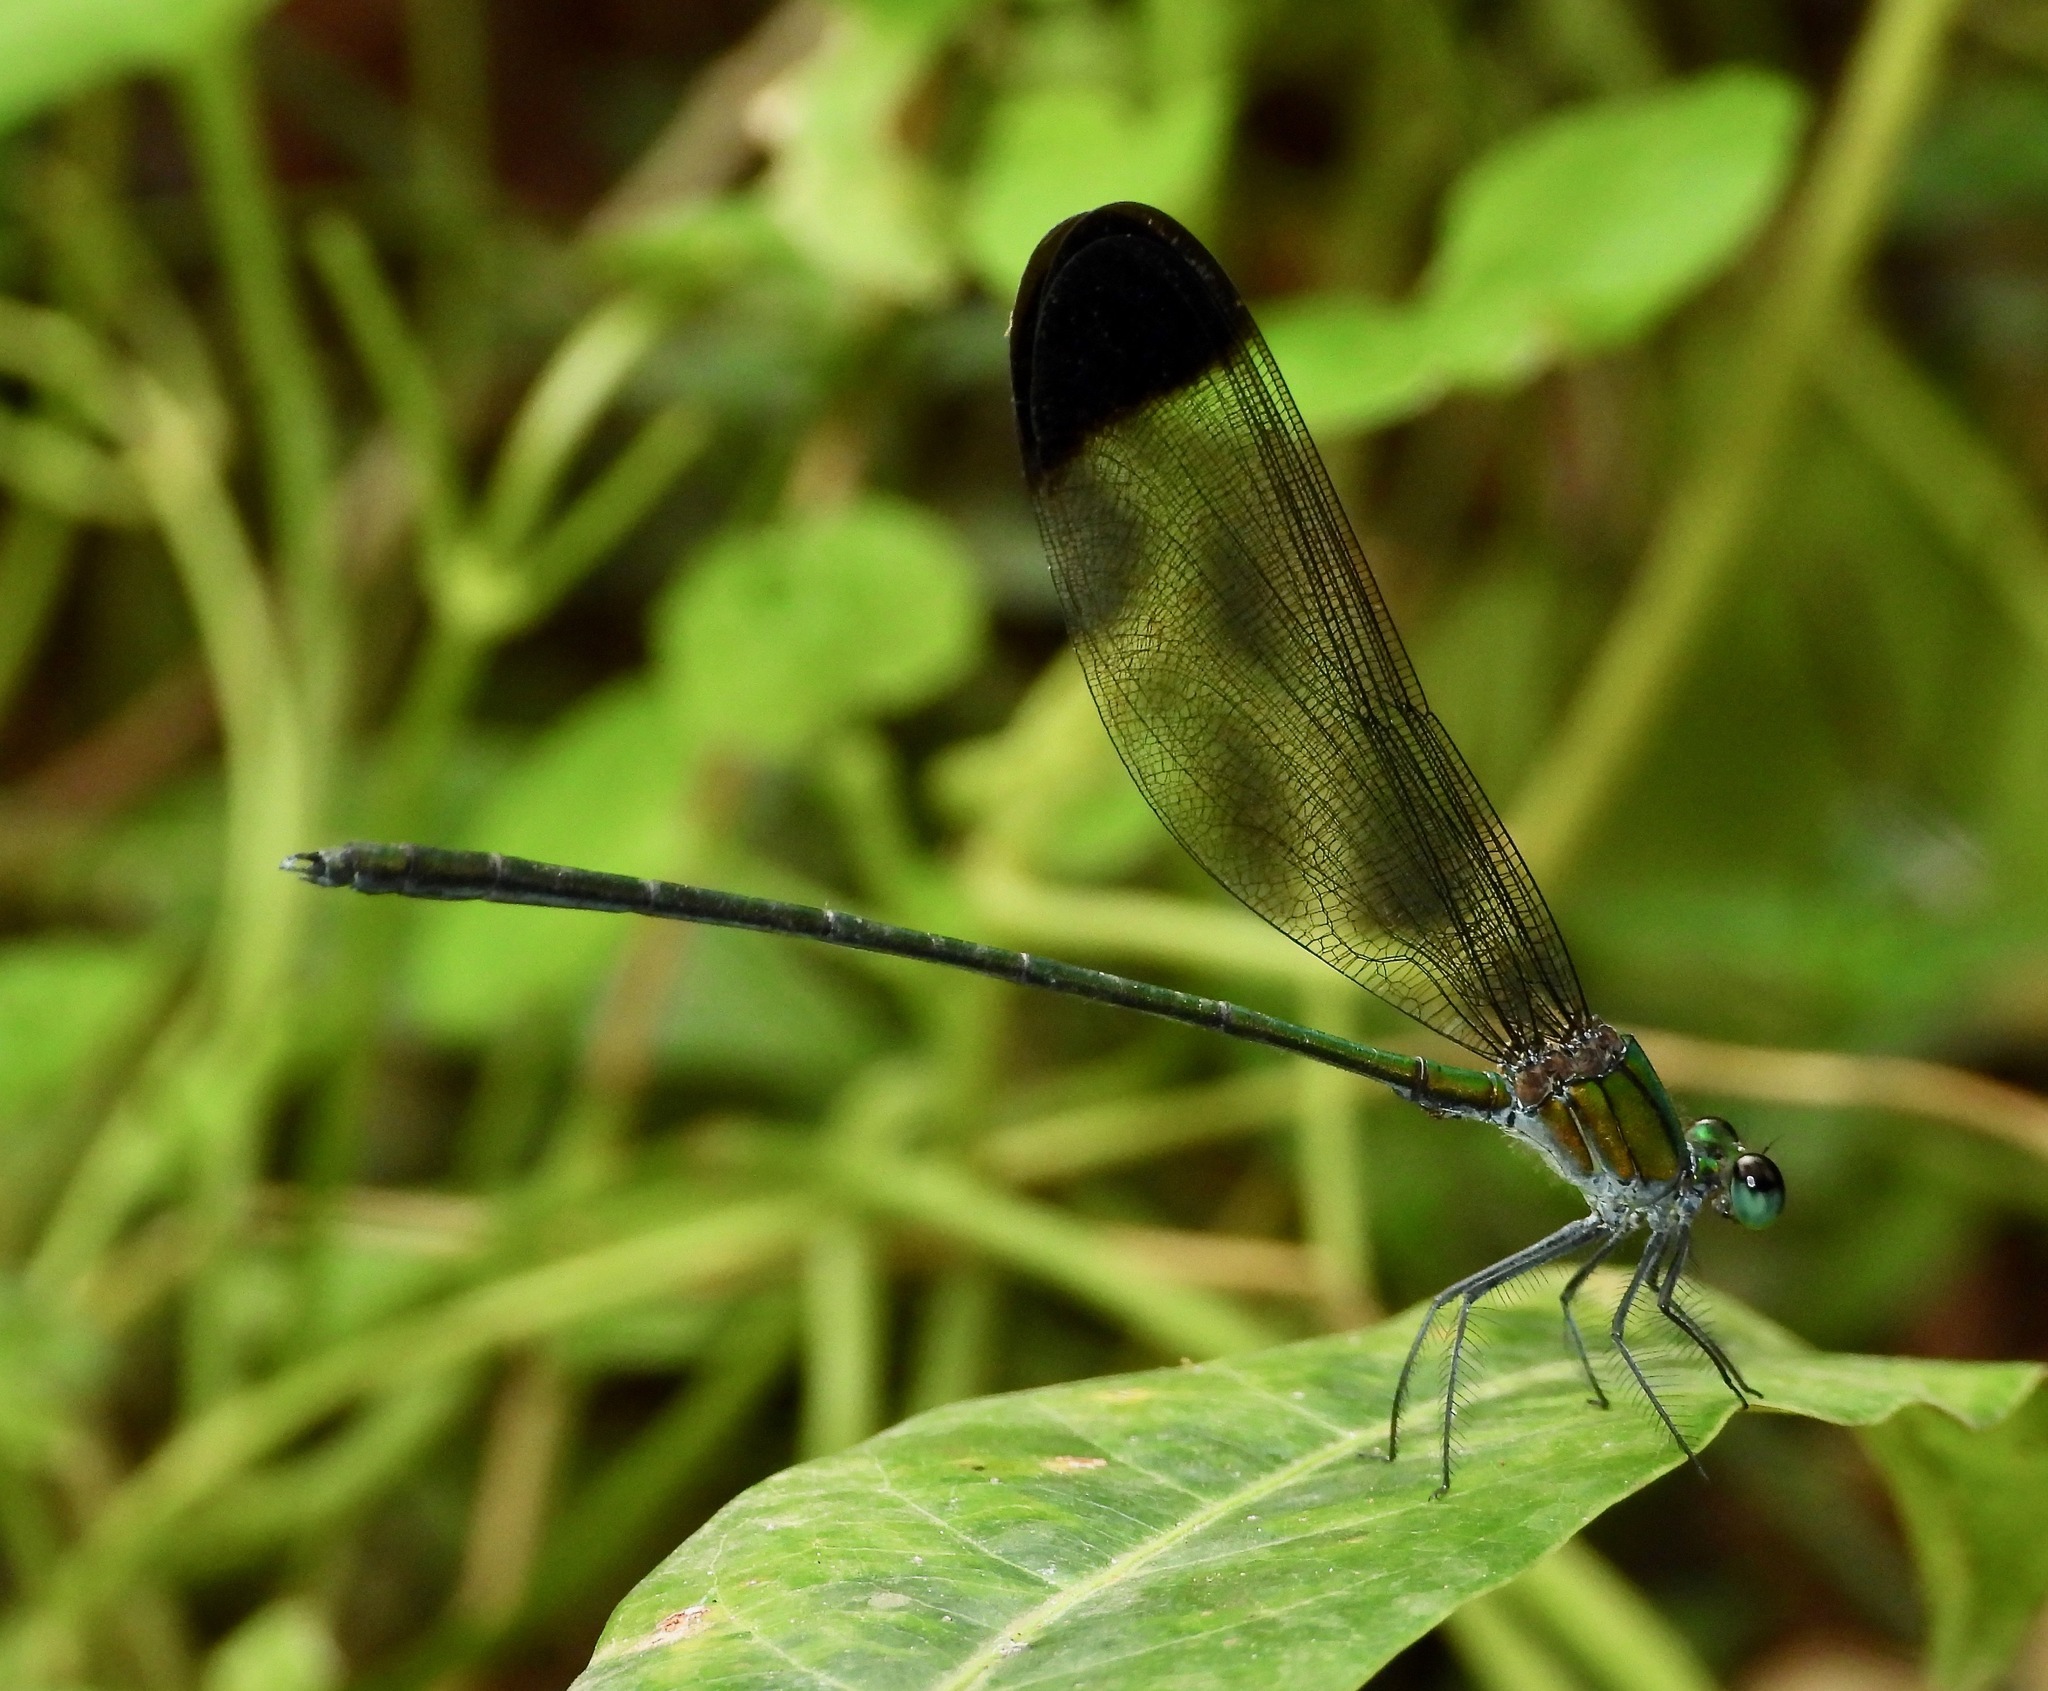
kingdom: Animalia
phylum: Arthropoda
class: Insecta
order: Odonata
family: Calopterygidae
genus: Vestalis
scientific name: Vestalis nigrescens
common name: Black-tipped demoiselle
